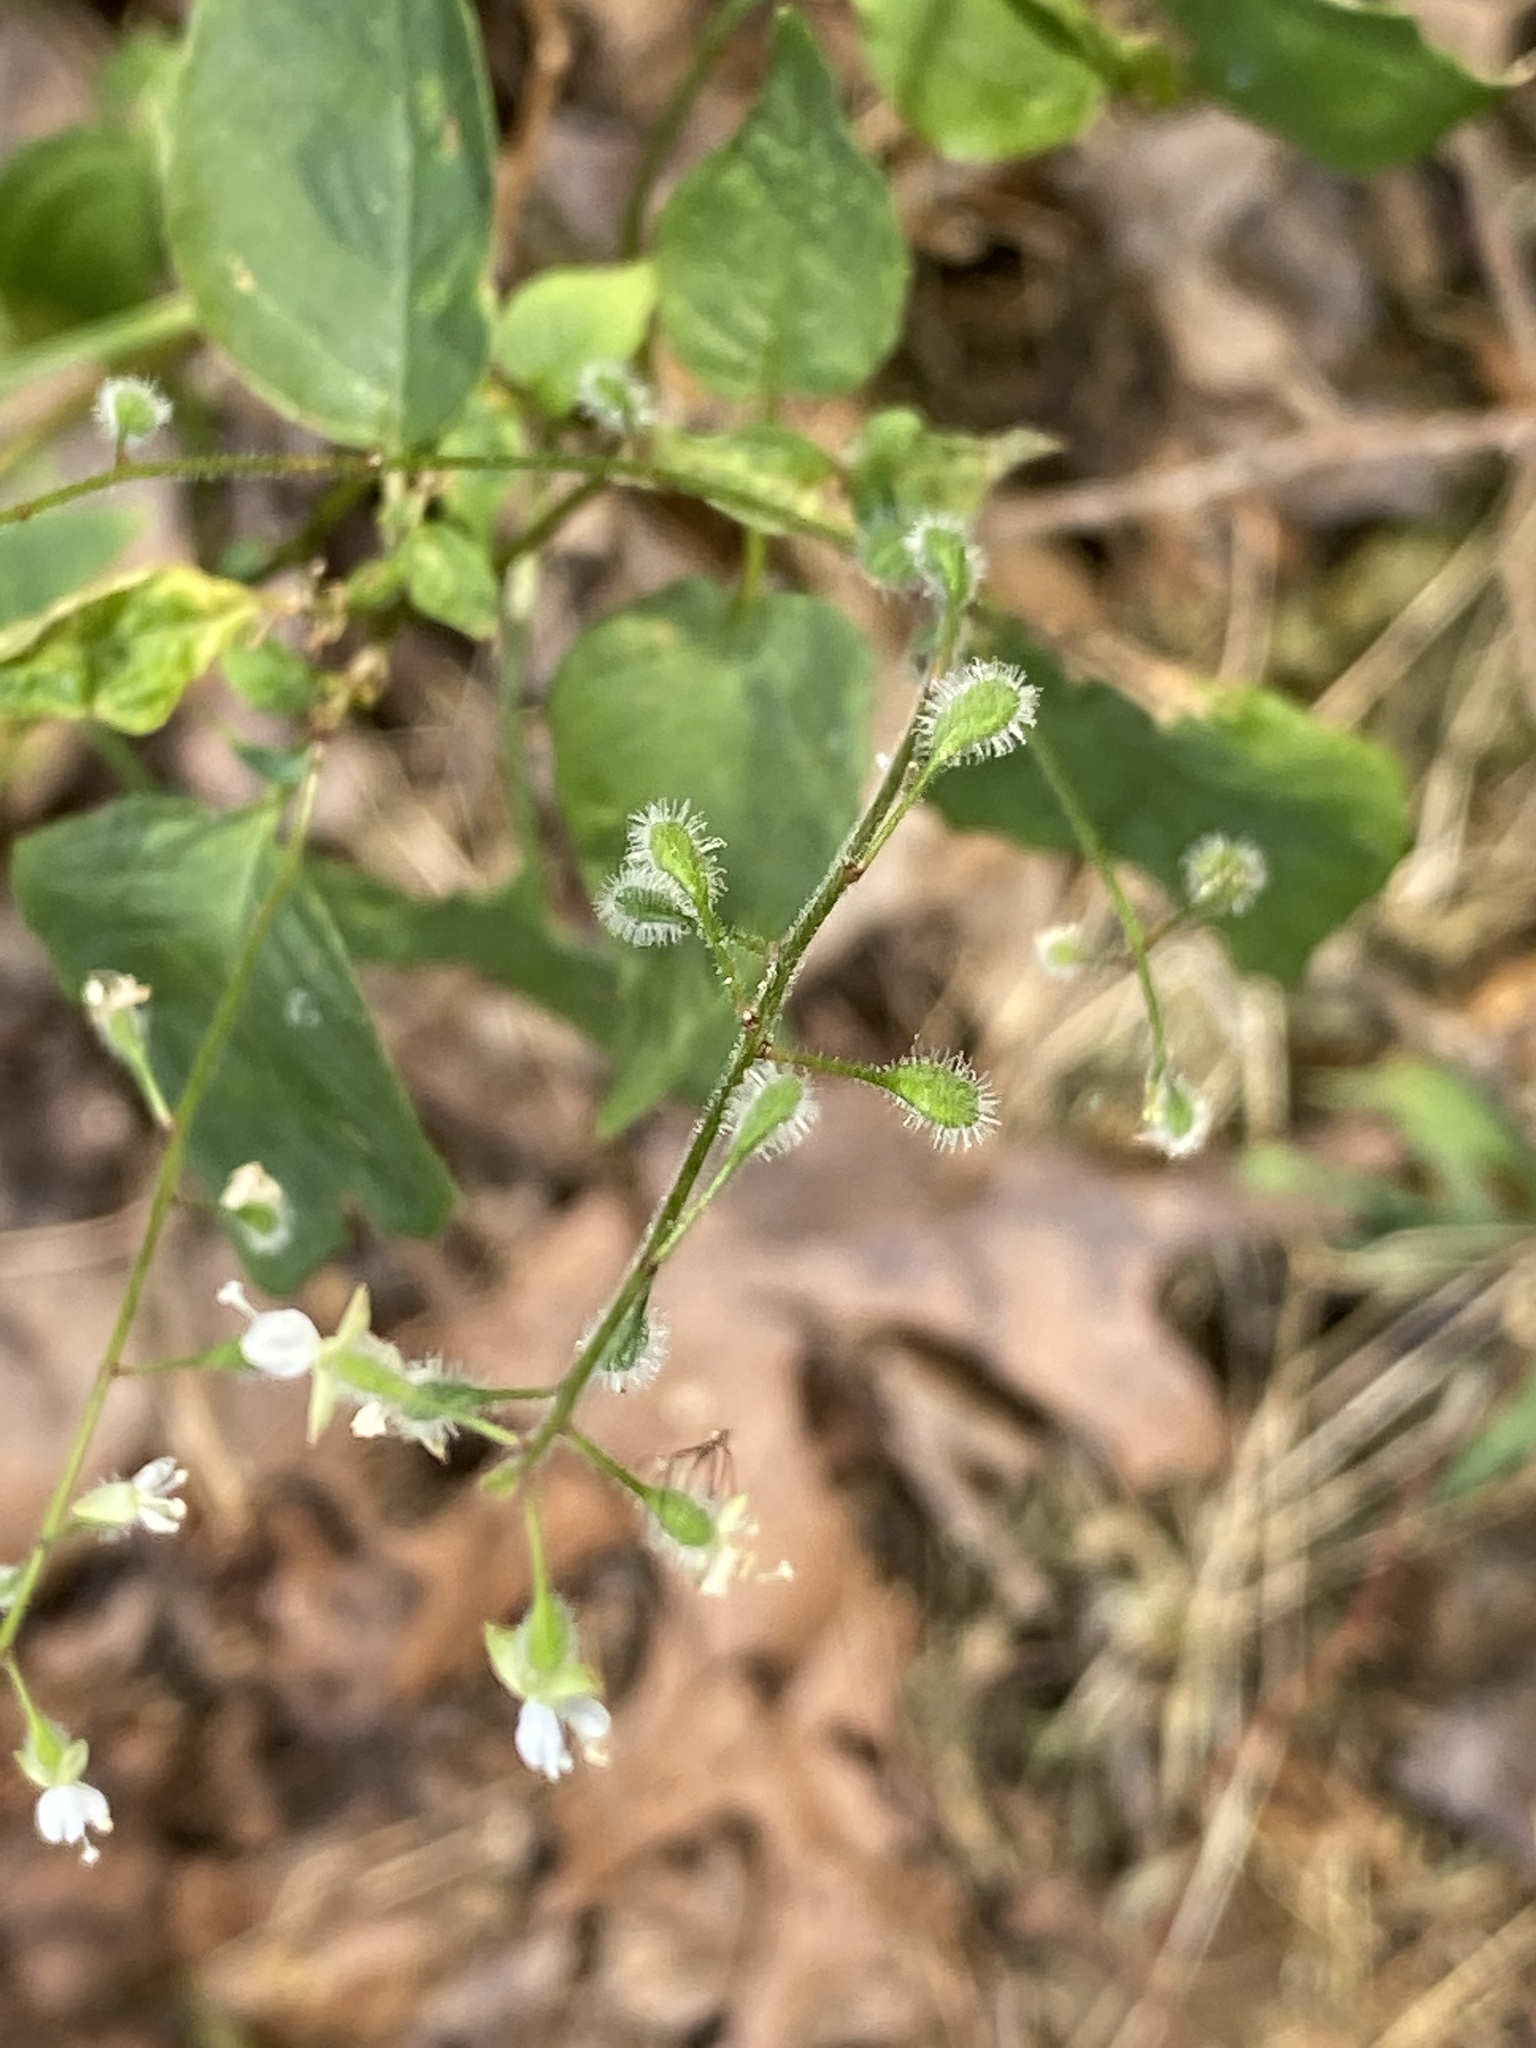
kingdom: Plantae
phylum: Tracheophyta
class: Magnoliopsida
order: Myrtales
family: Onagraceae
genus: Circaea
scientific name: Circaea canadensis
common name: Broad-leaved enchanter's nightshade
